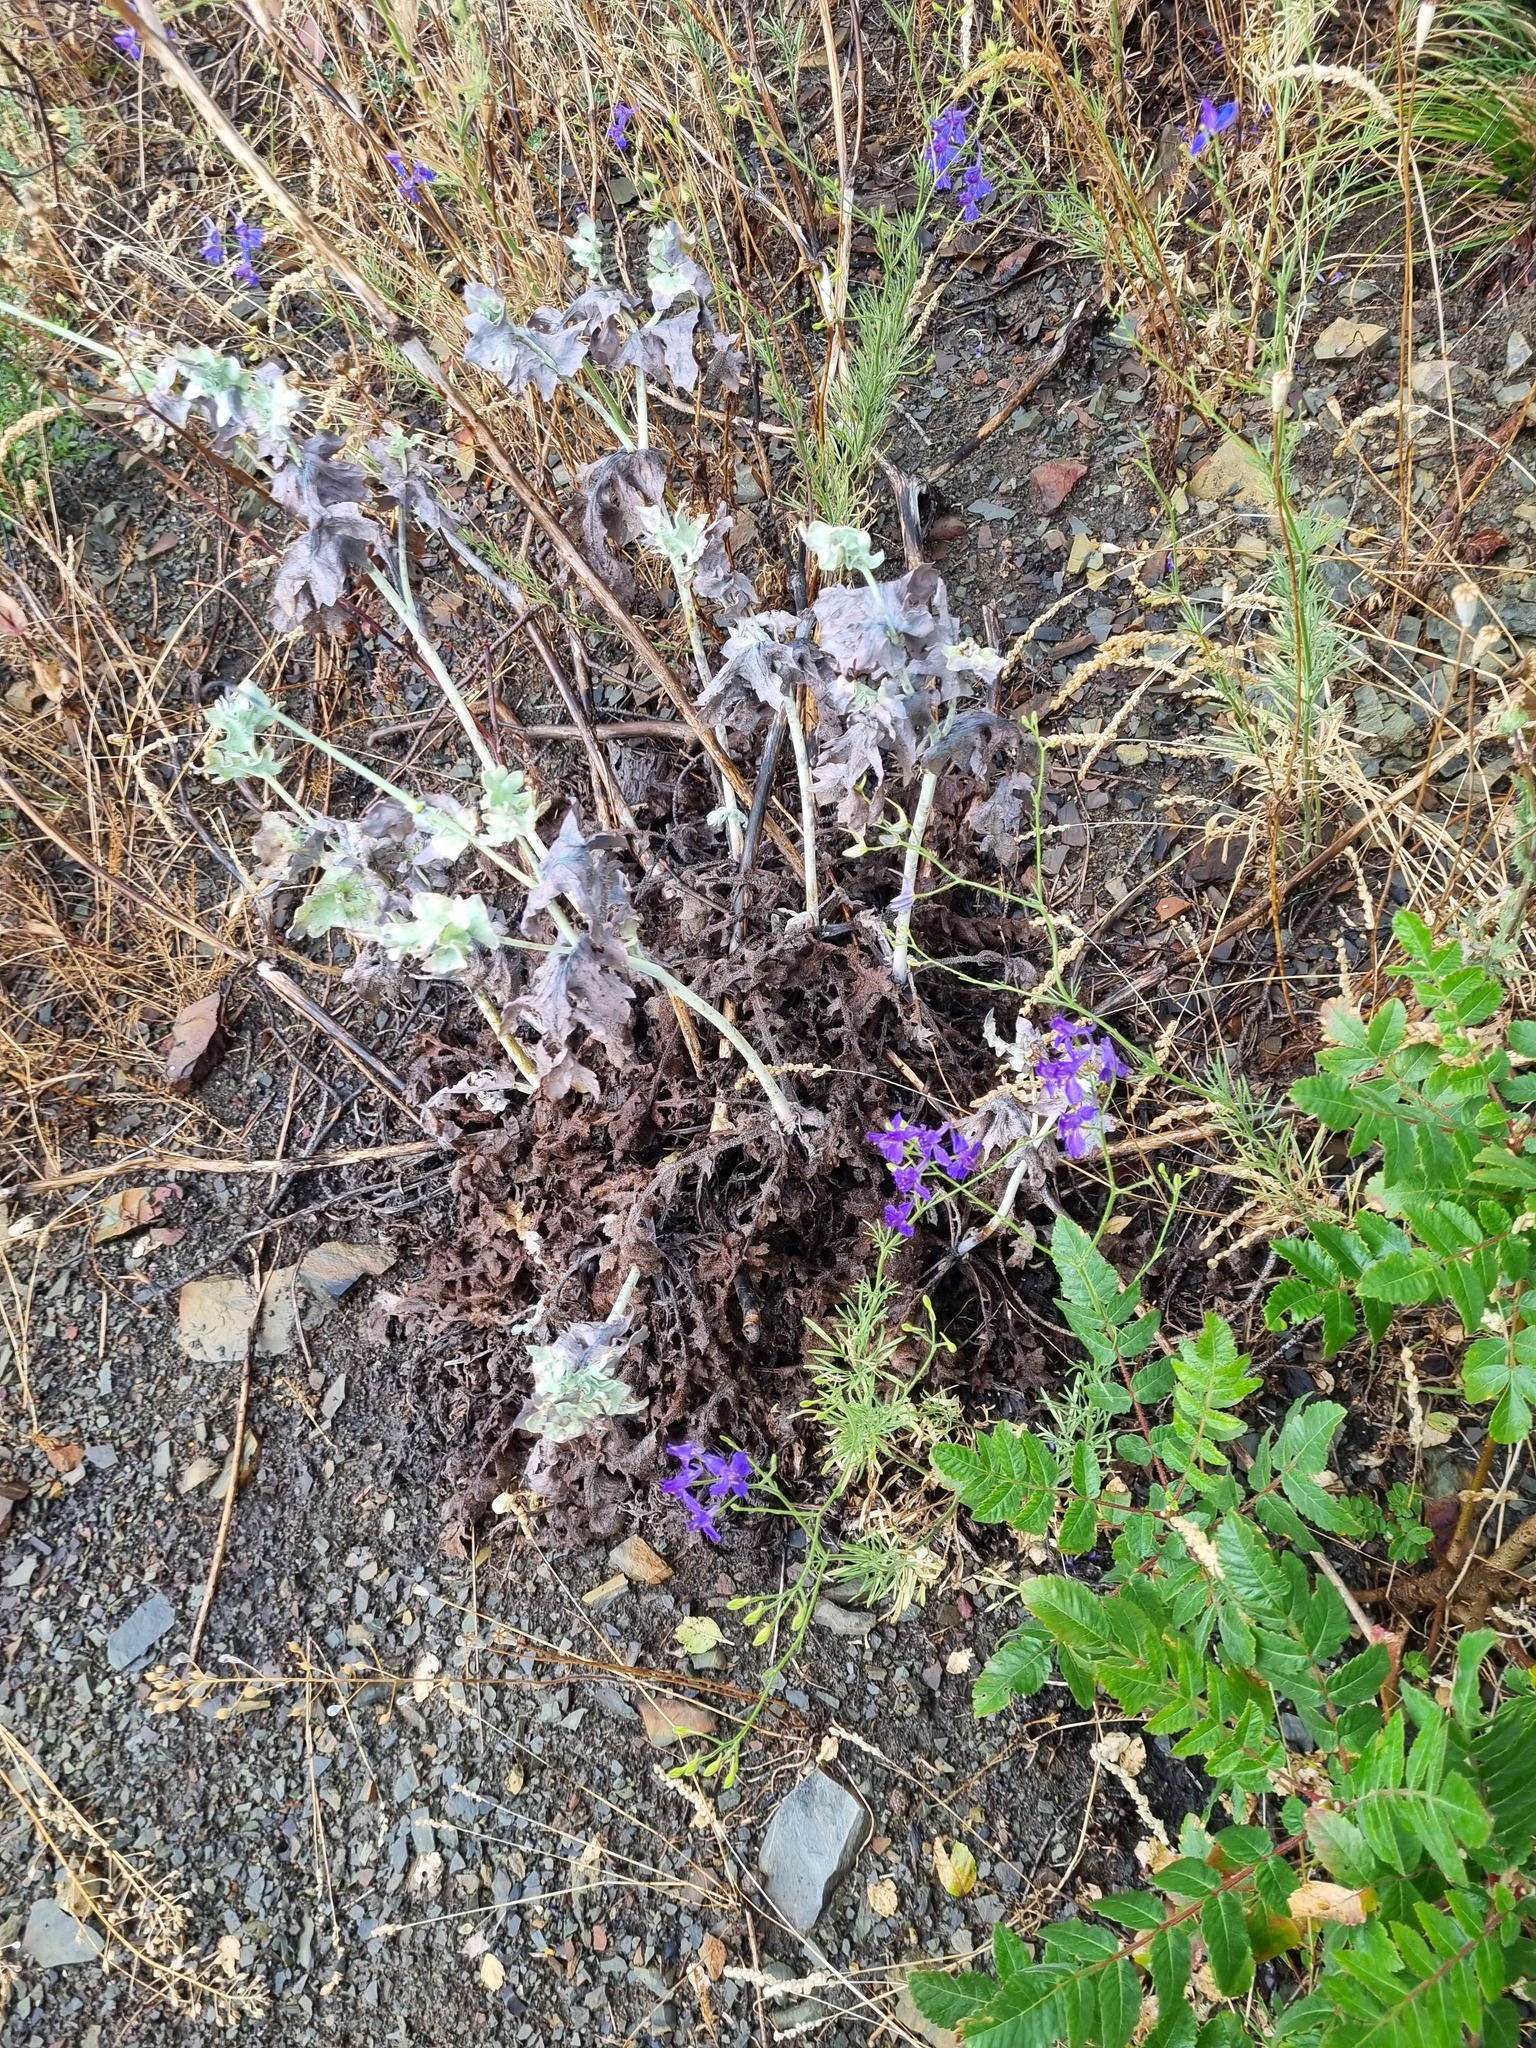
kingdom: Plantae
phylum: Tracheophyta
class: Magnoliopsida
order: Ranunculales
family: Papaveraceae
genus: Glaucium
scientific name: Glaucium flavum
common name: Yellow horned-poppy
